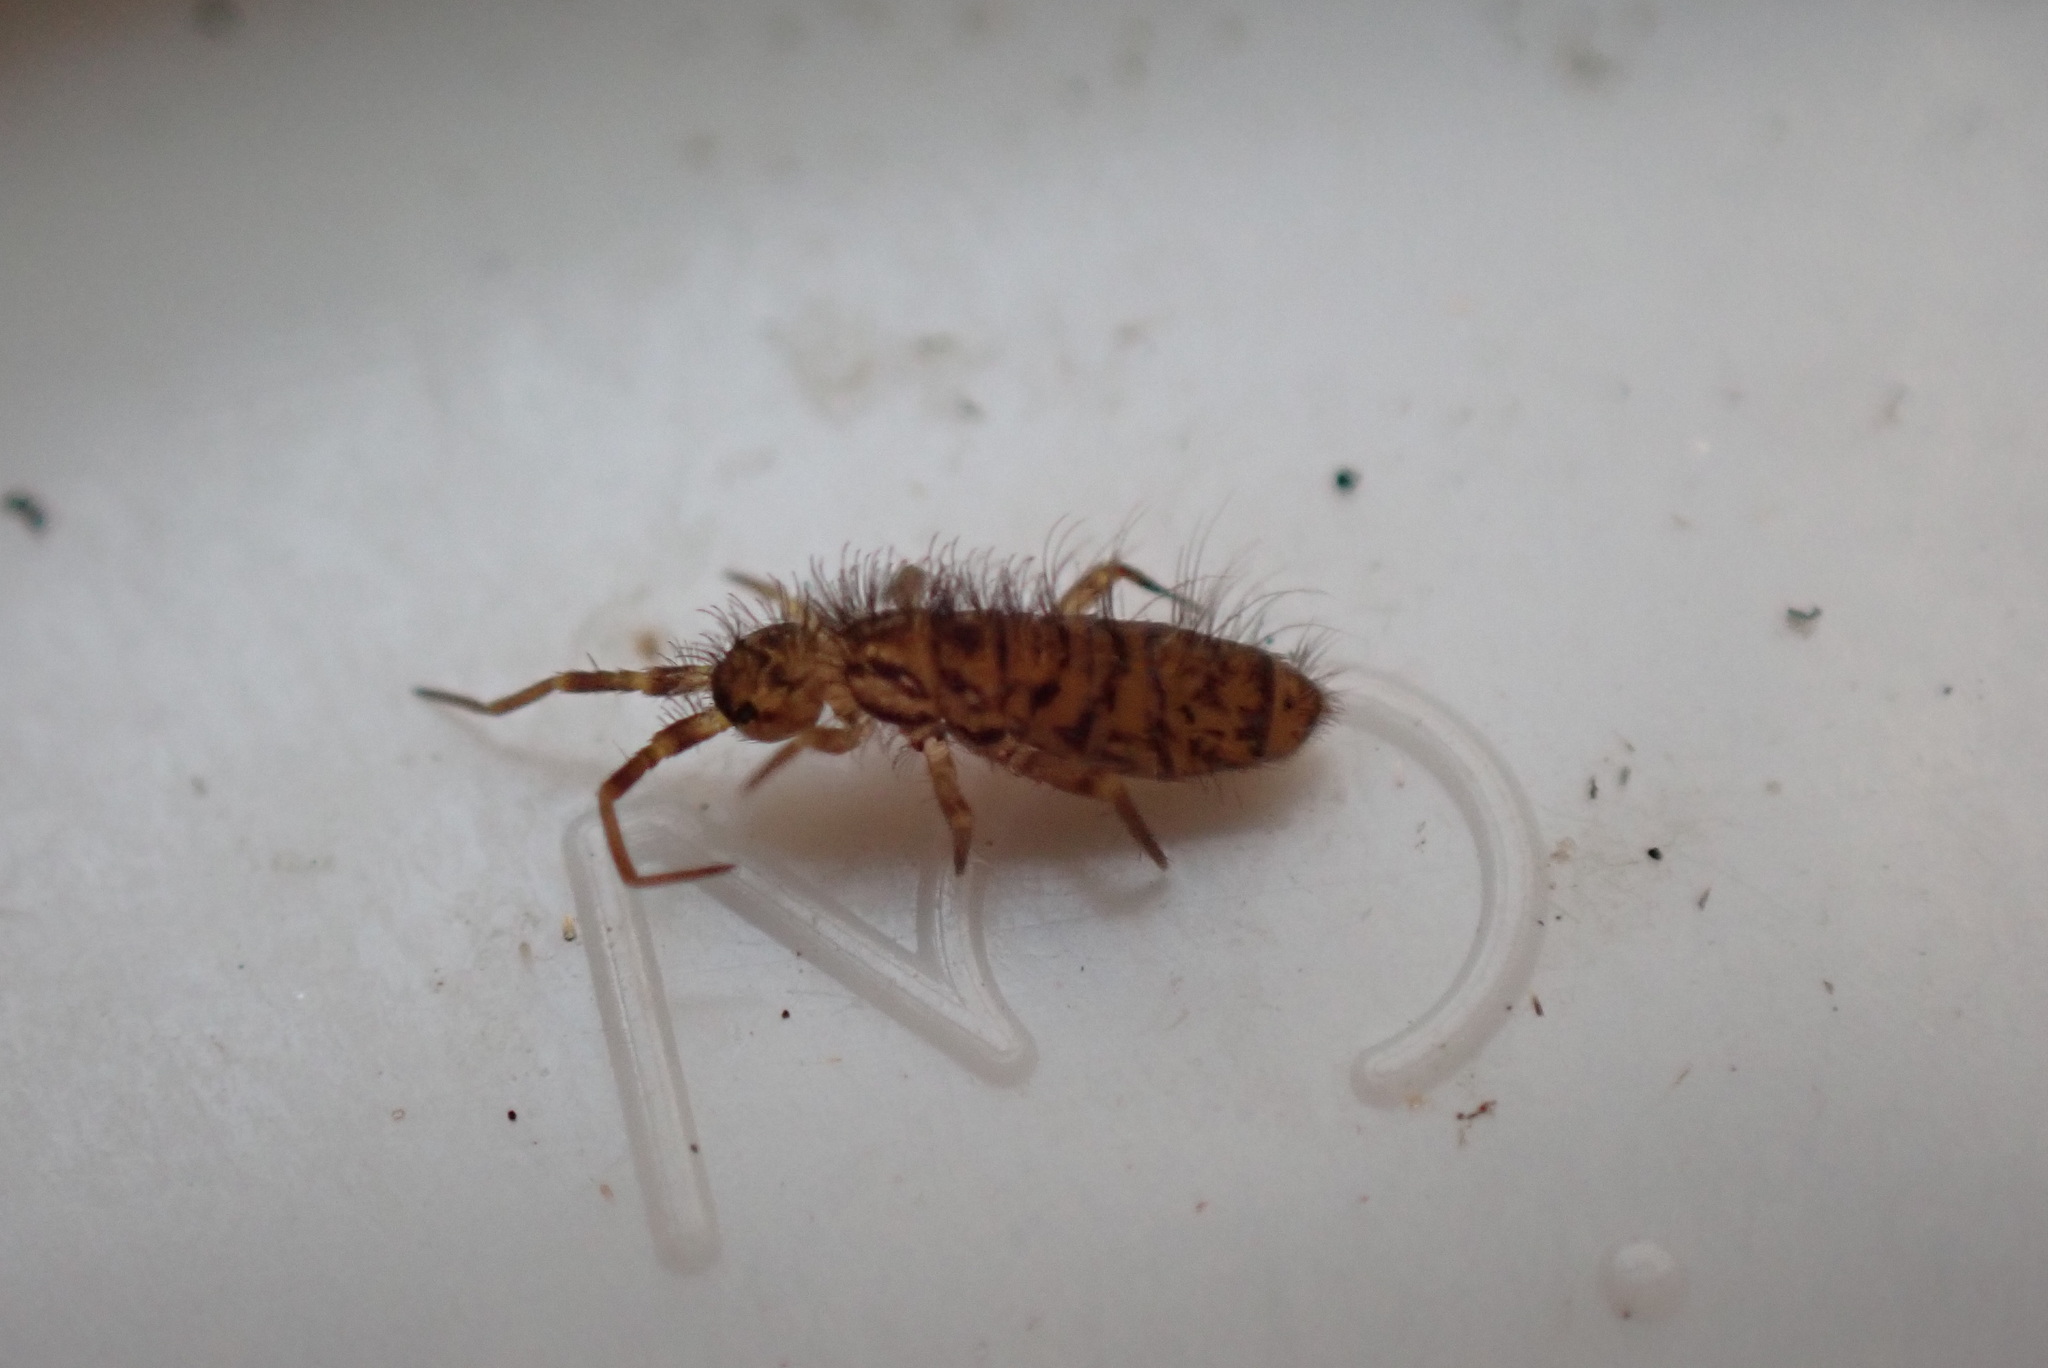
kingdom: Animalia
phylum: Arthropoda
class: Collembola
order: Entomobryomorpha
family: Orchesellidae
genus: Orchesella
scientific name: Orchesella villosa
